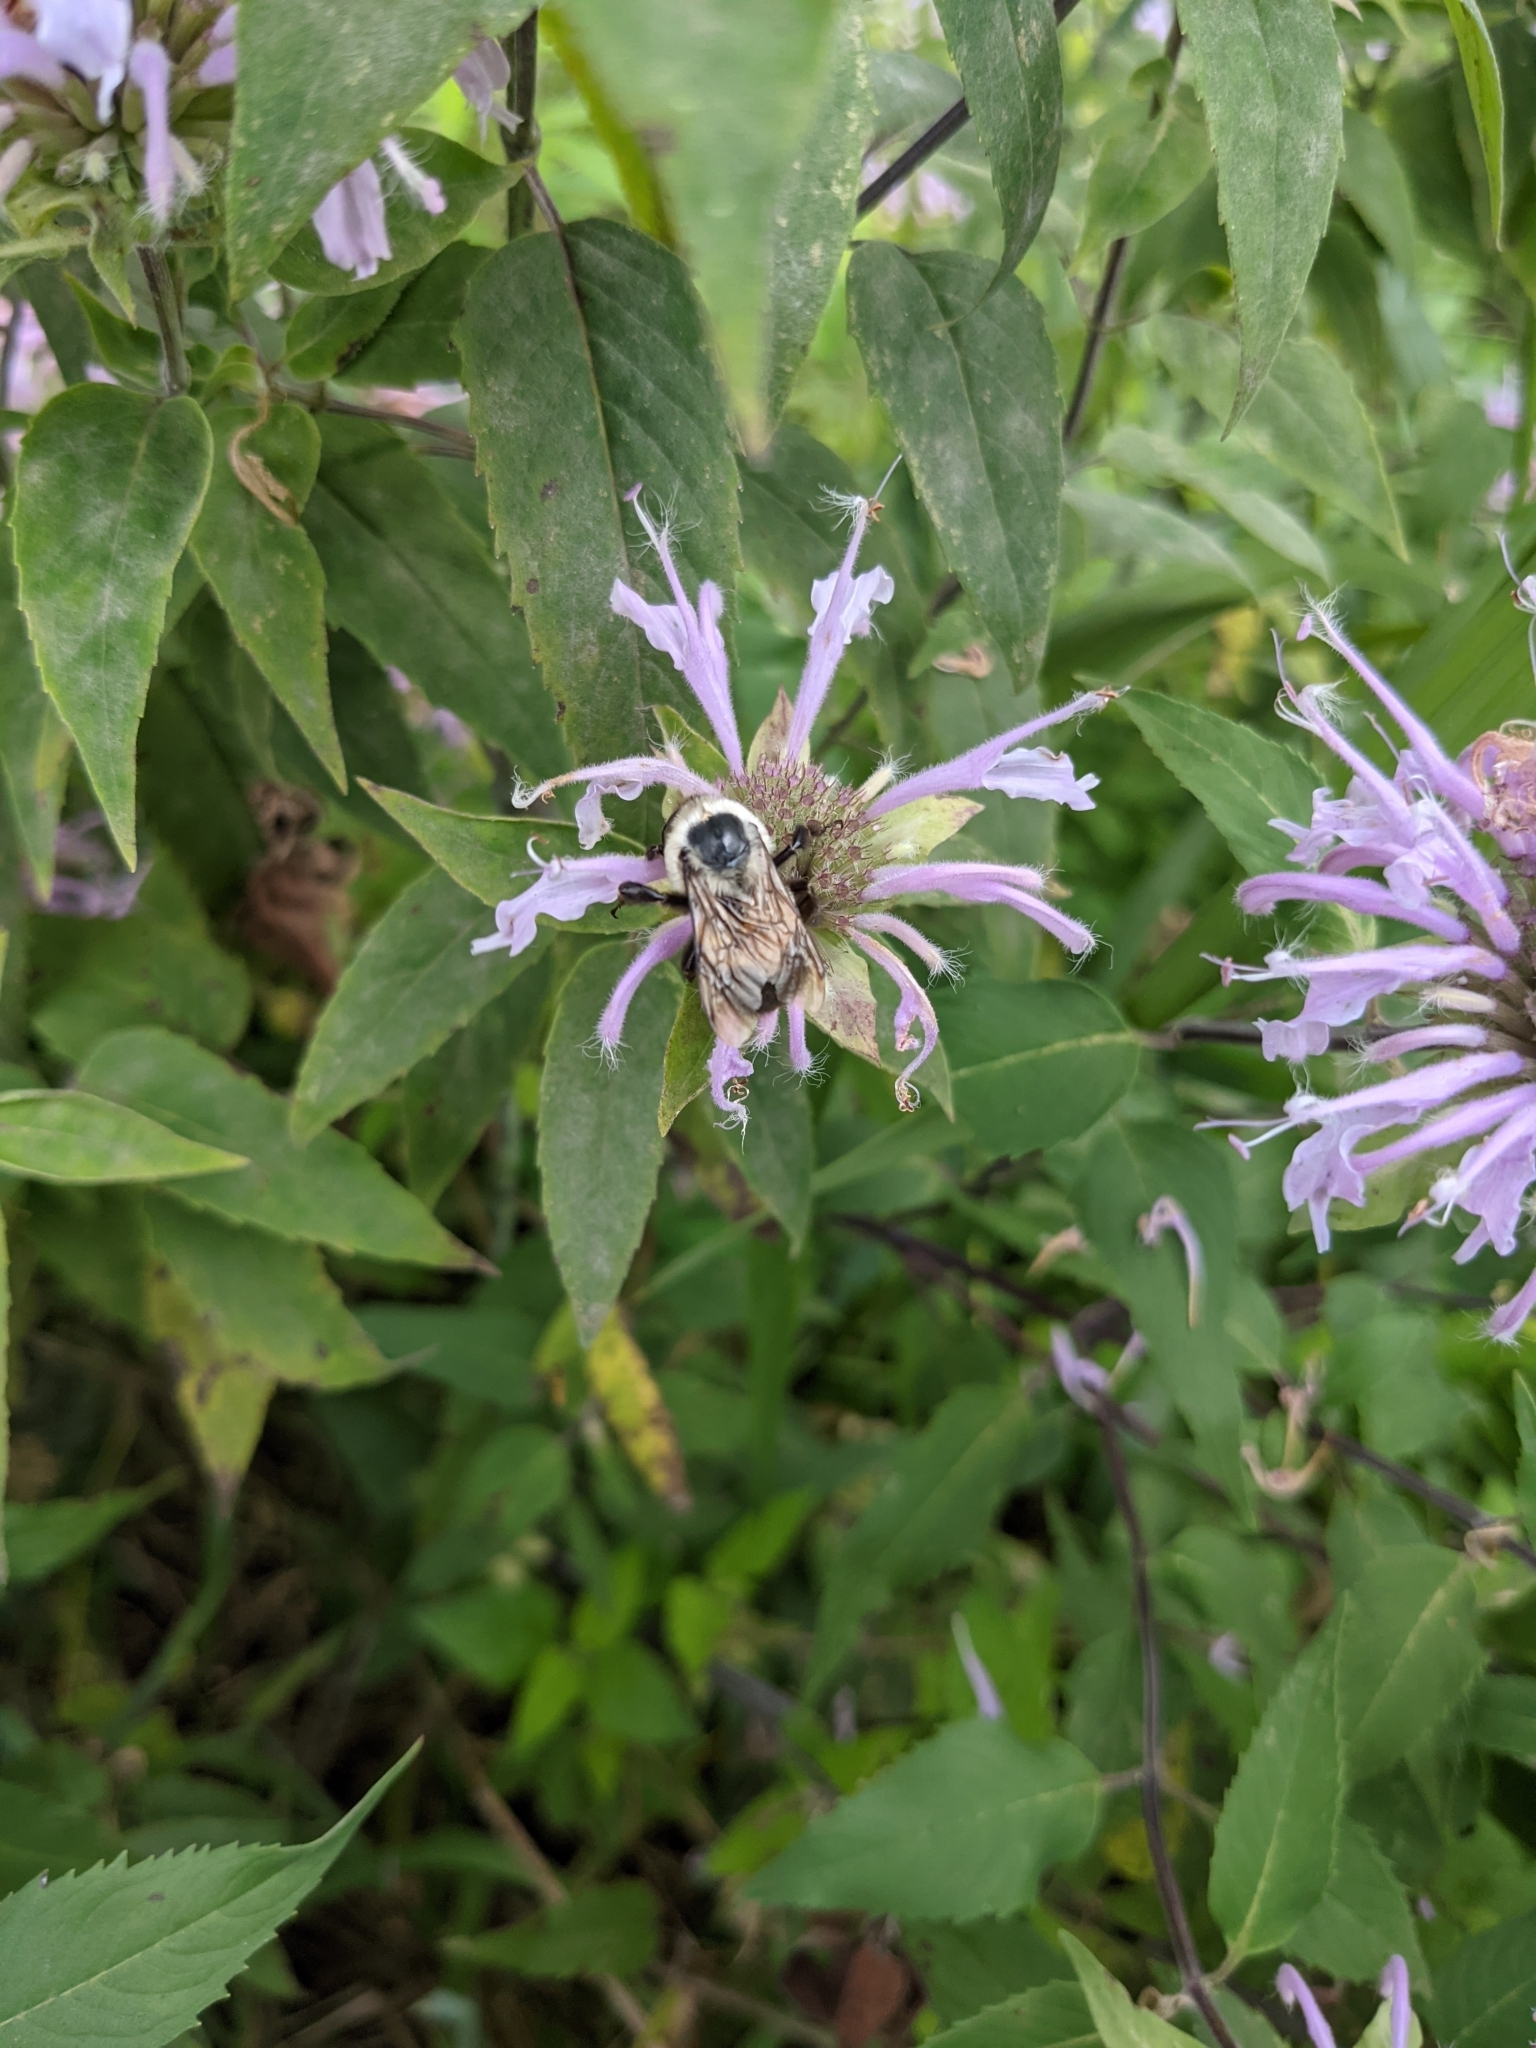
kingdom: Animalia
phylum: Arthropoda
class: Insecta
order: Hymenoptera
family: Apidae
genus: Bombus
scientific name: Bombus griseocollis
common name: Brown-belted bumble bee
